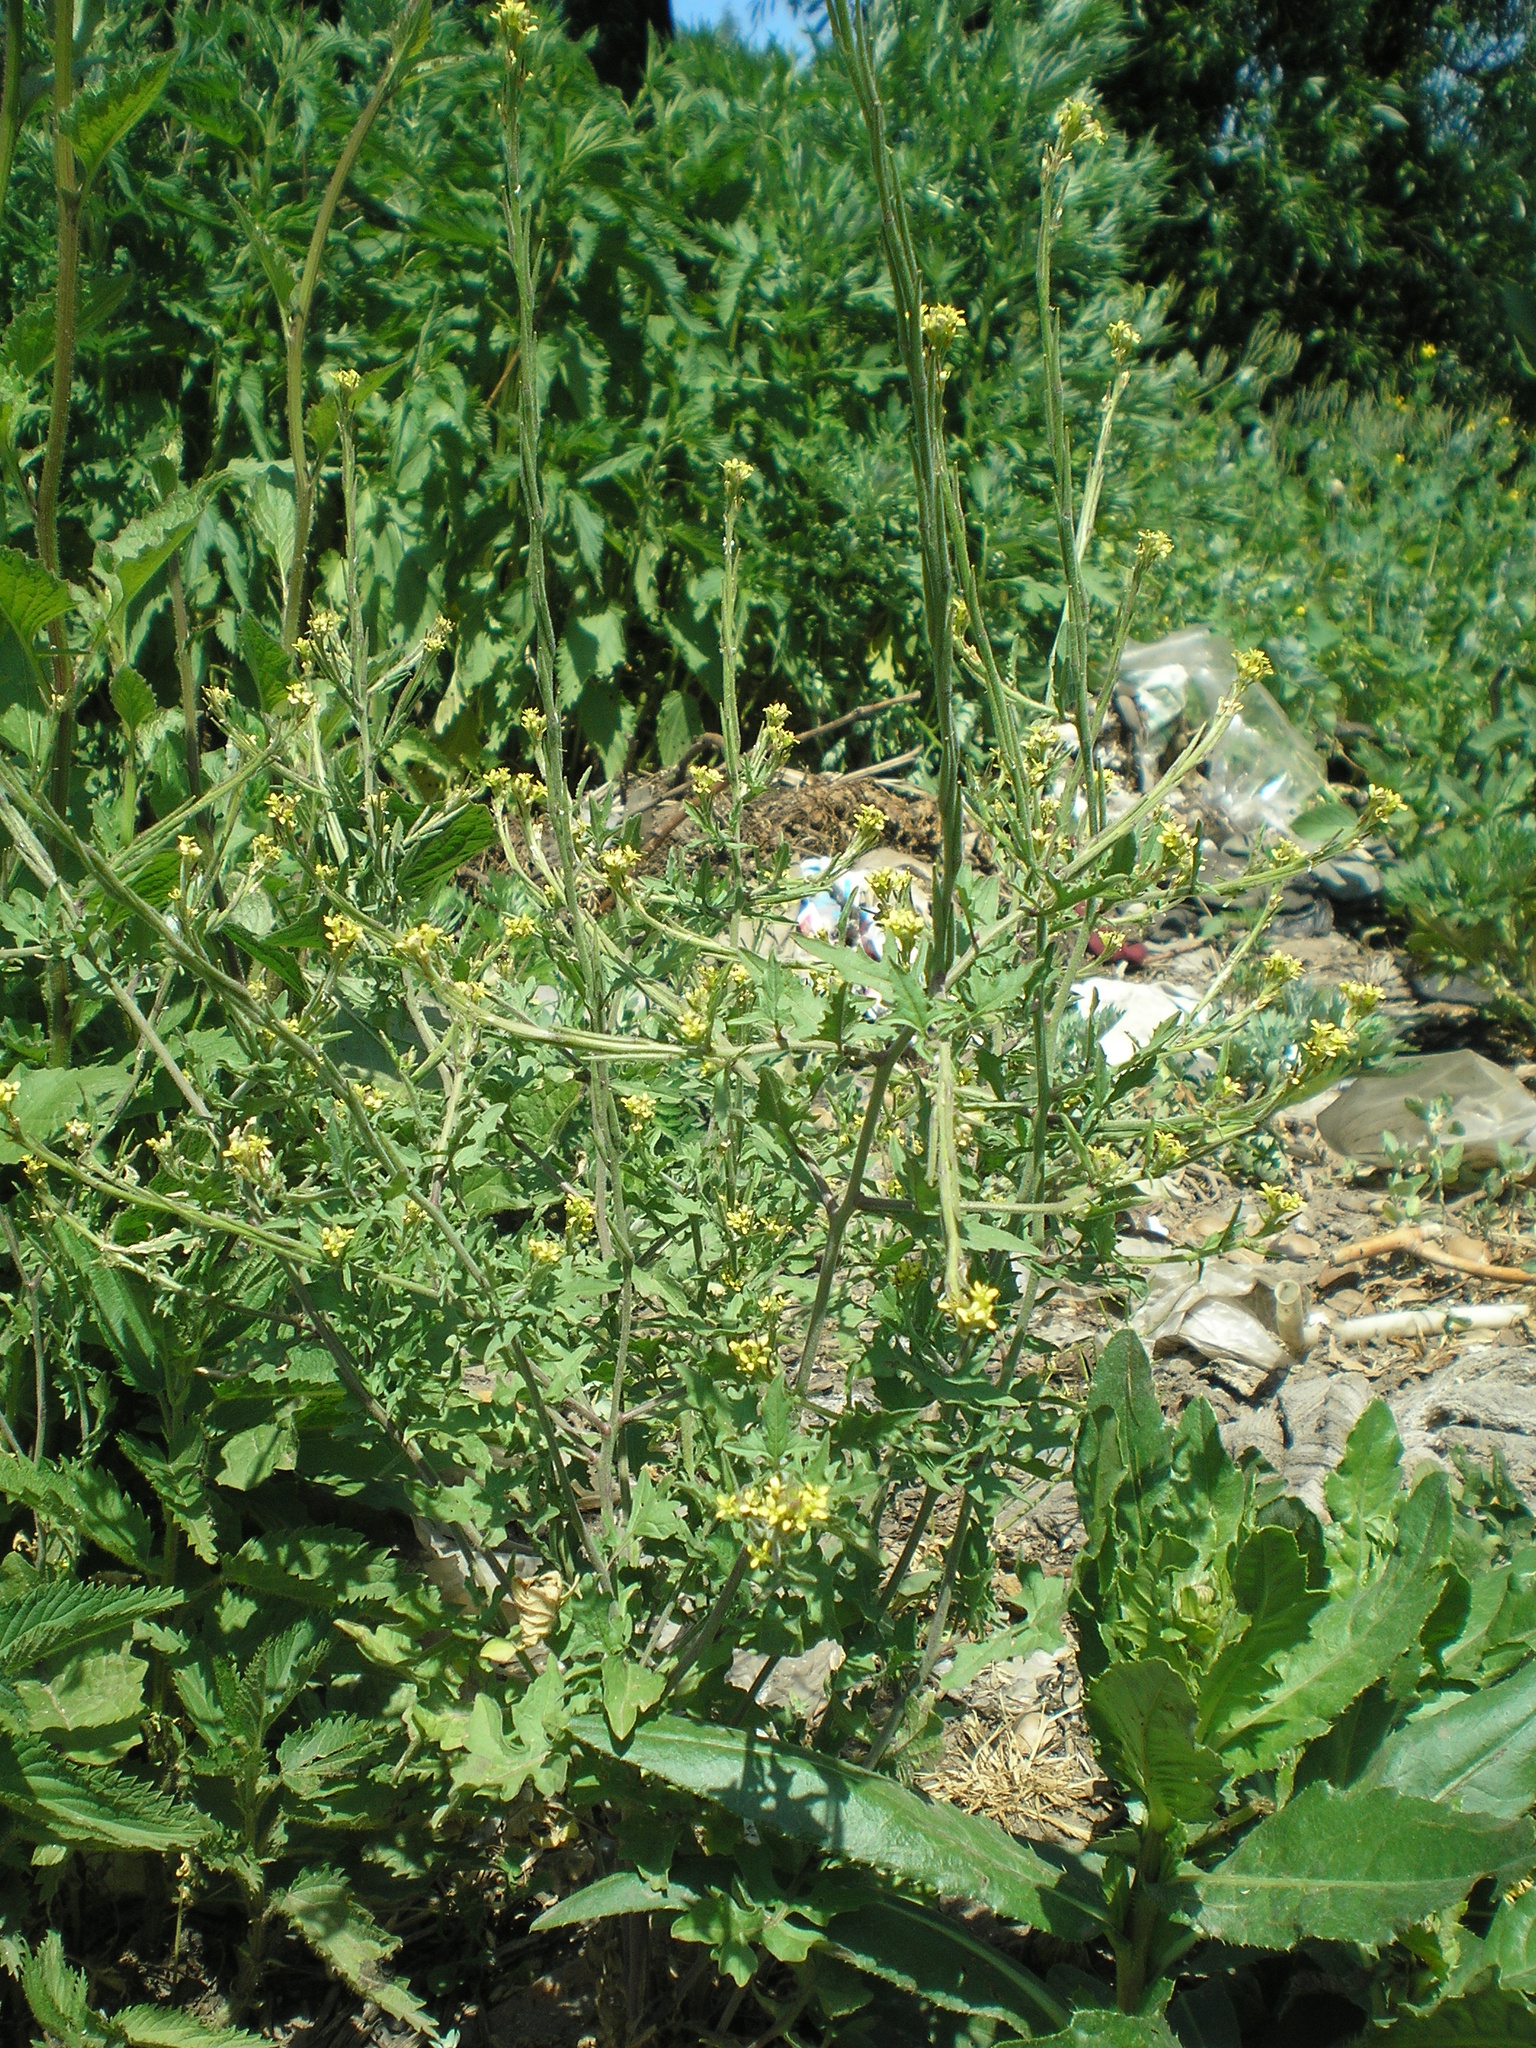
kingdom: Plantae
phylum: Tracheophyta
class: Magnoliopsida
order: Brassicales
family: Brassicaceae
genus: Sisymbrium
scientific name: Sisymbrium officinale
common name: Hedge mustard
